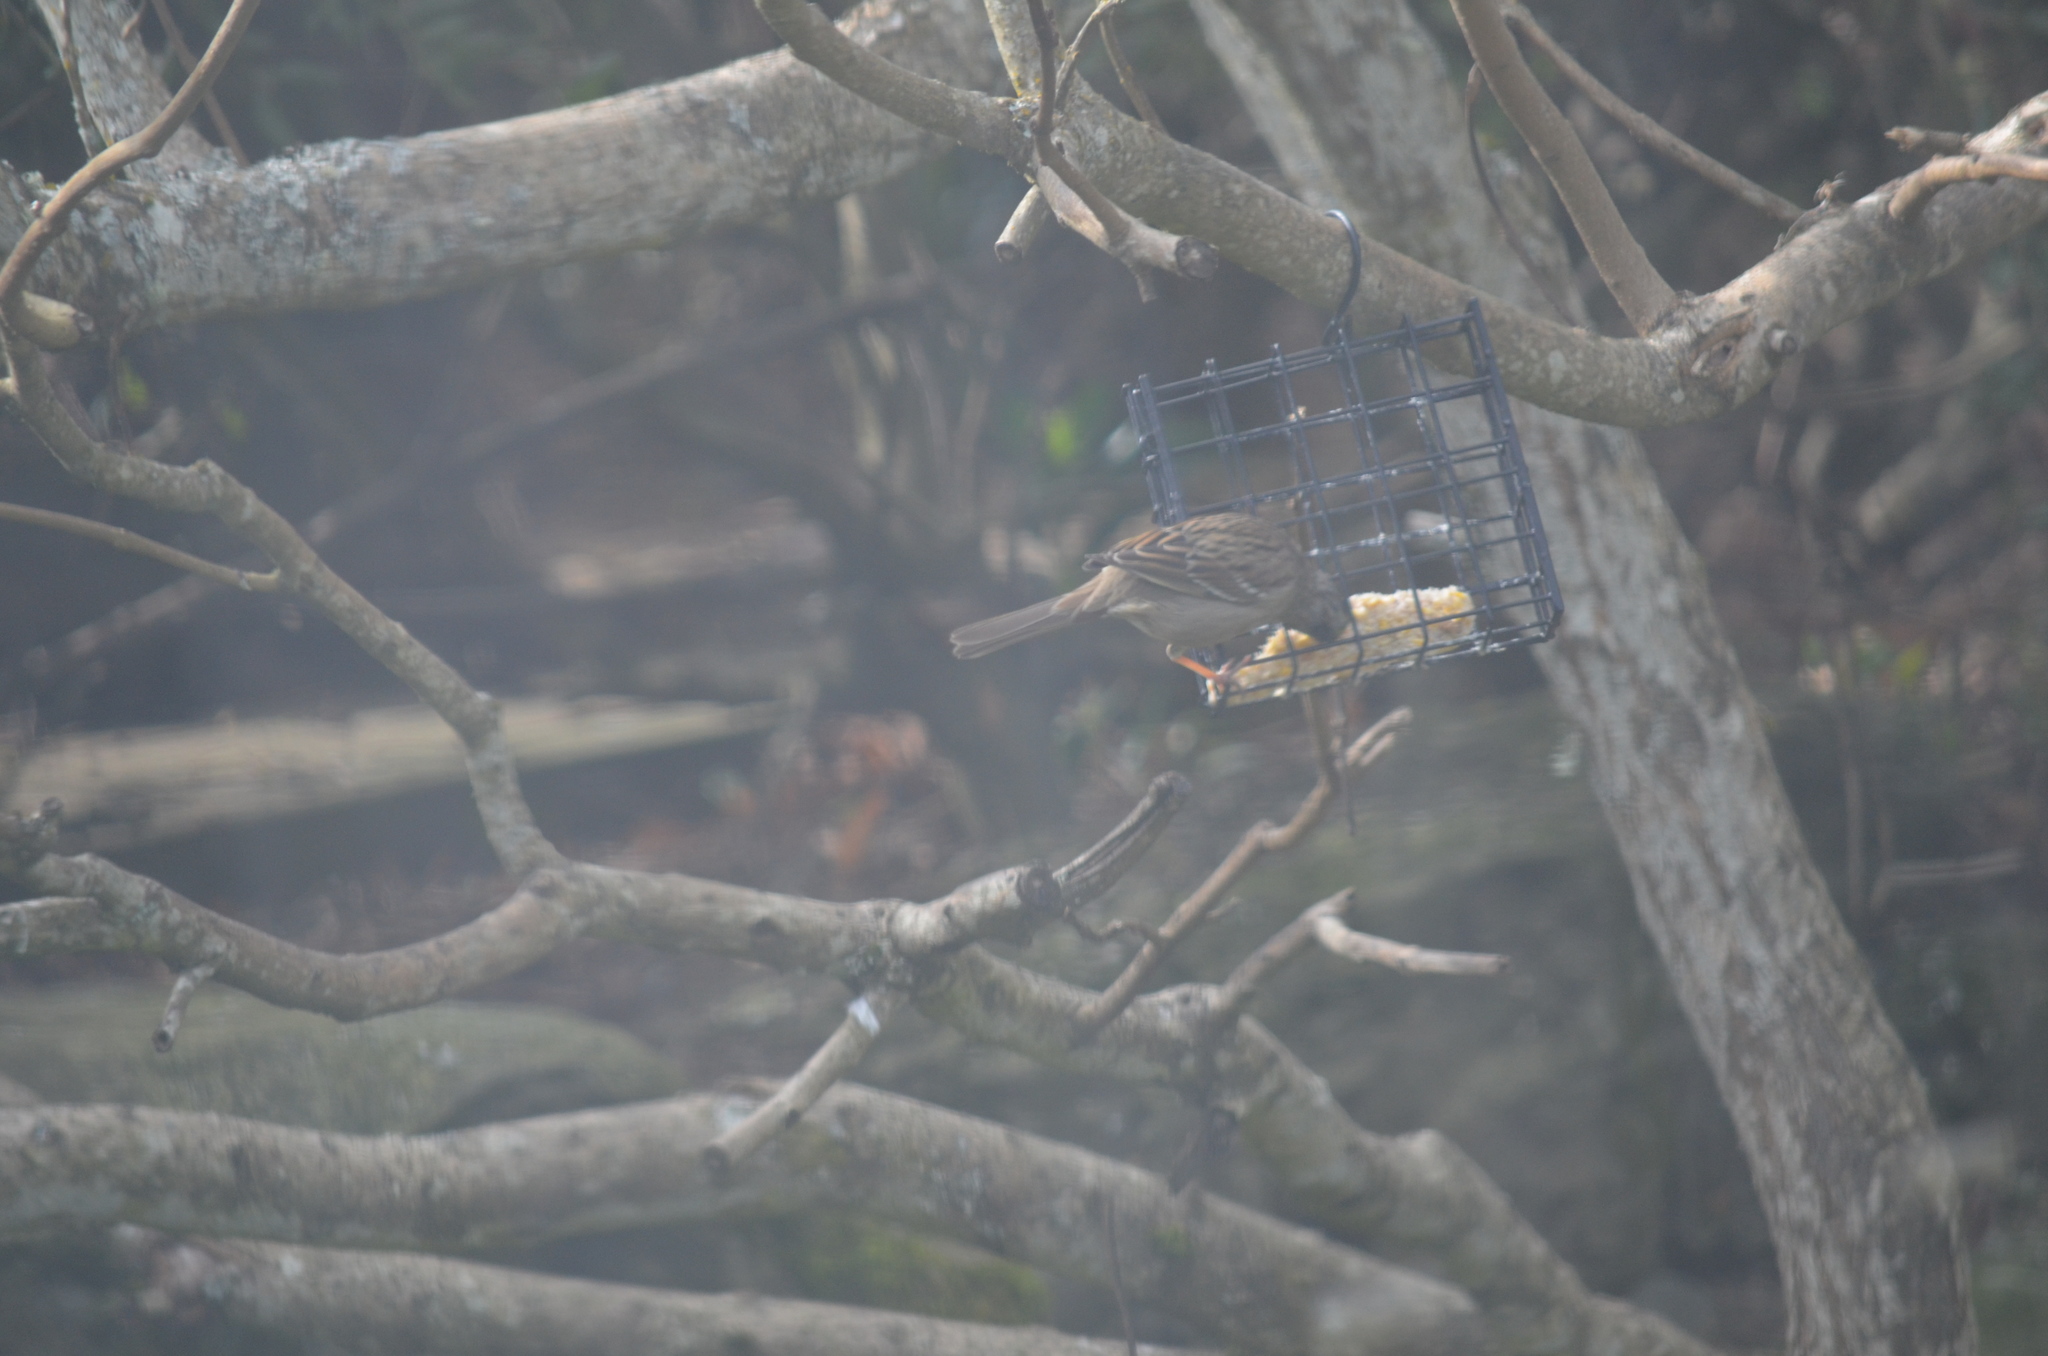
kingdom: Animalia
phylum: Chordata
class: Aves
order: Passeriformes
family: Passerellidae
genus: Zonotrichia
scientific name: Zonotrichia atricapilla
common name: Golden-crowned sparrow
